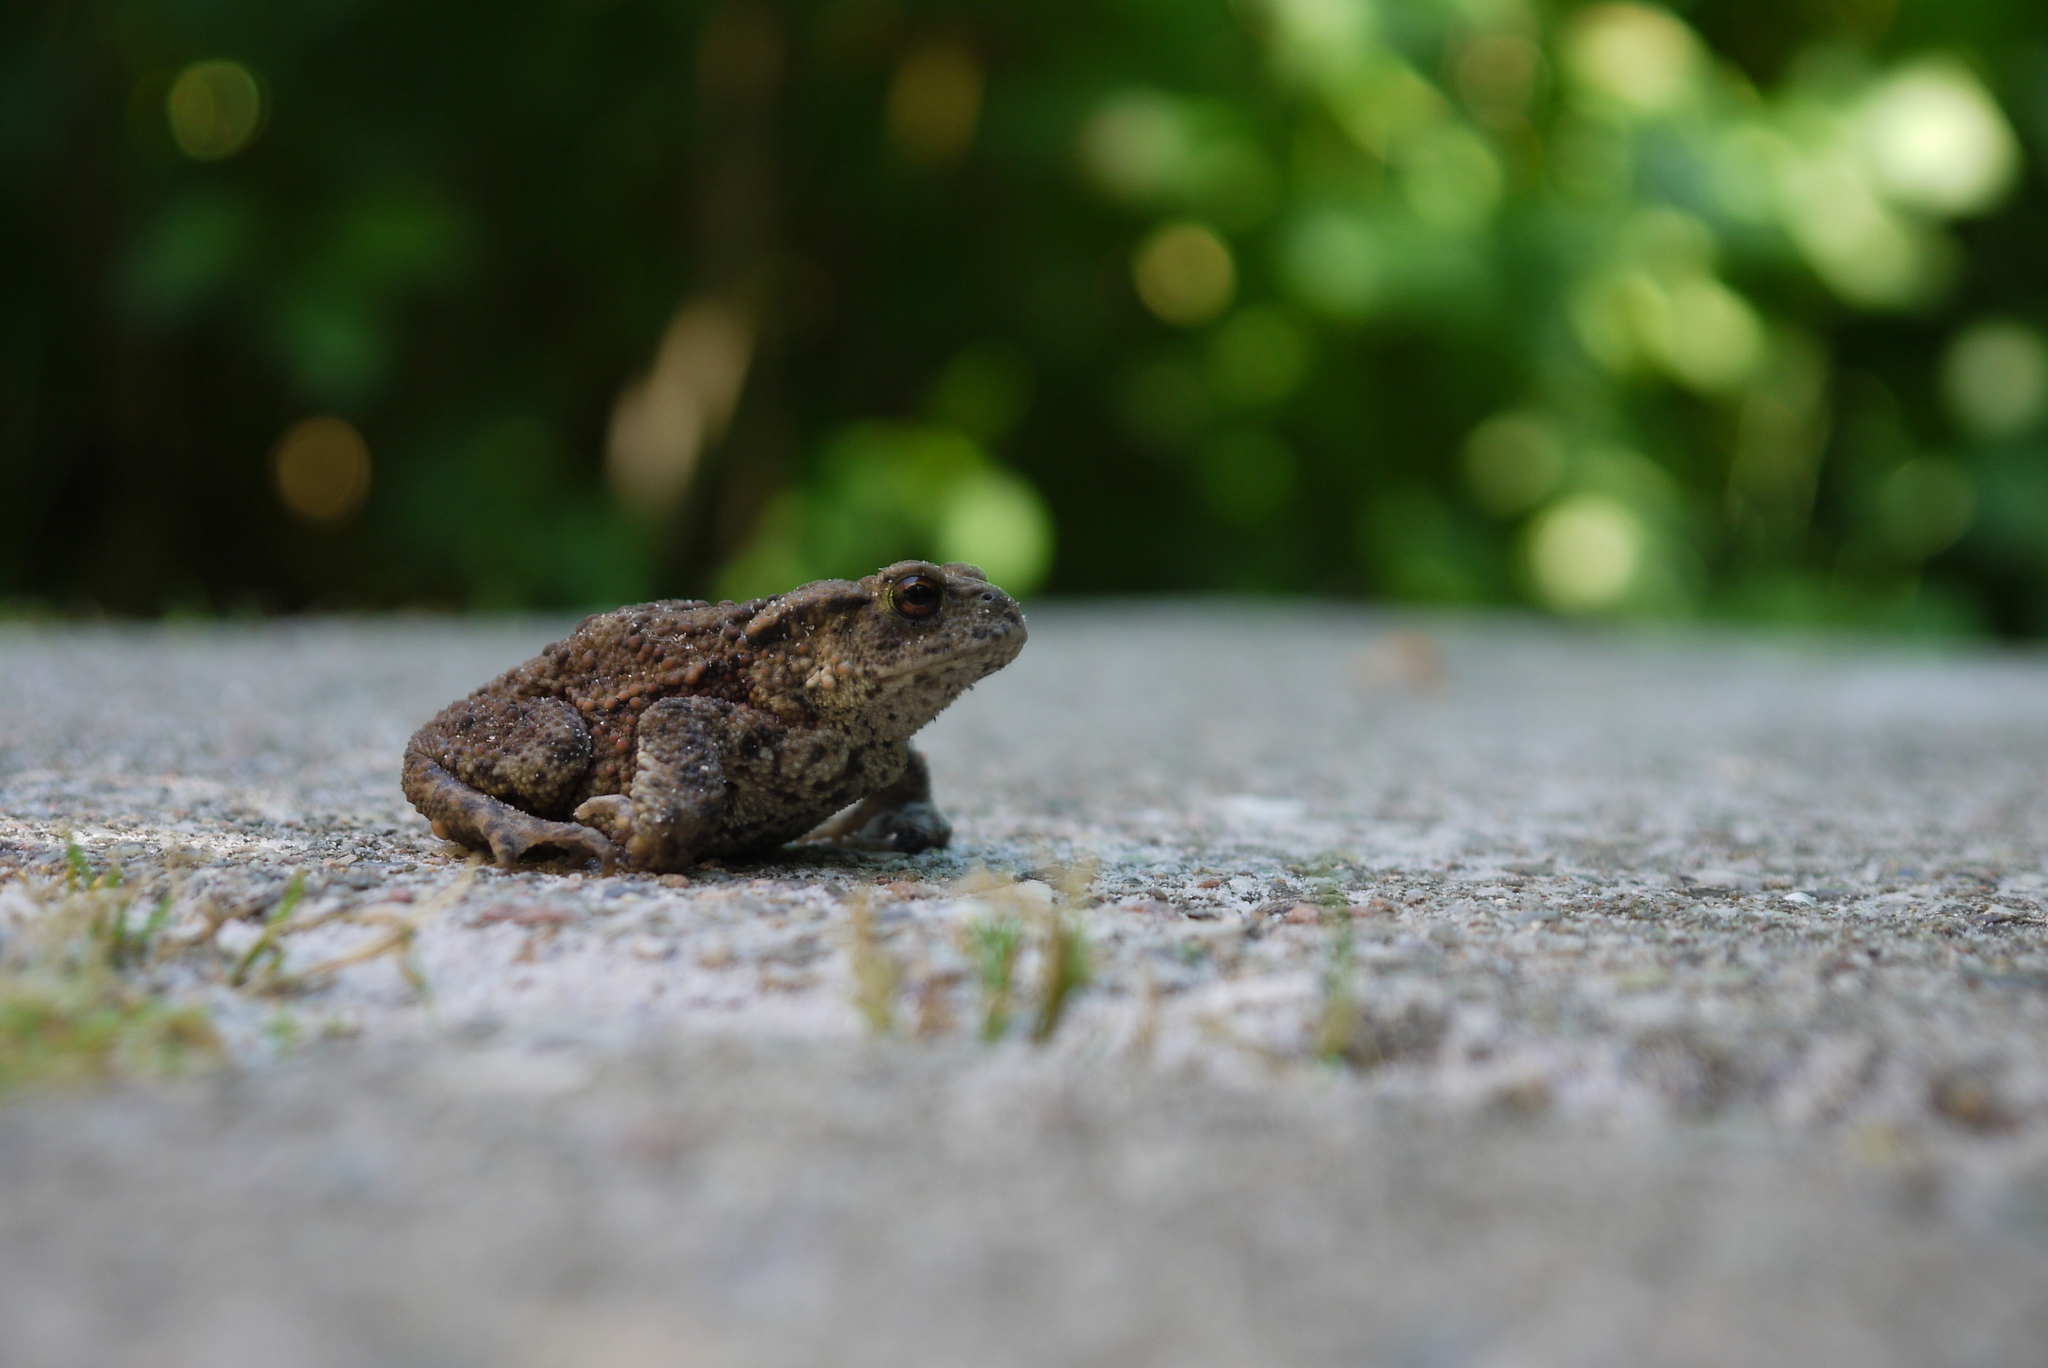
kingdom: Animalia
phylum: Chordata
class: Amphibia
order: Anura
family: Bufonidae
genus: Bufo
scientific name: Bufo bufo
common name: Common toad
